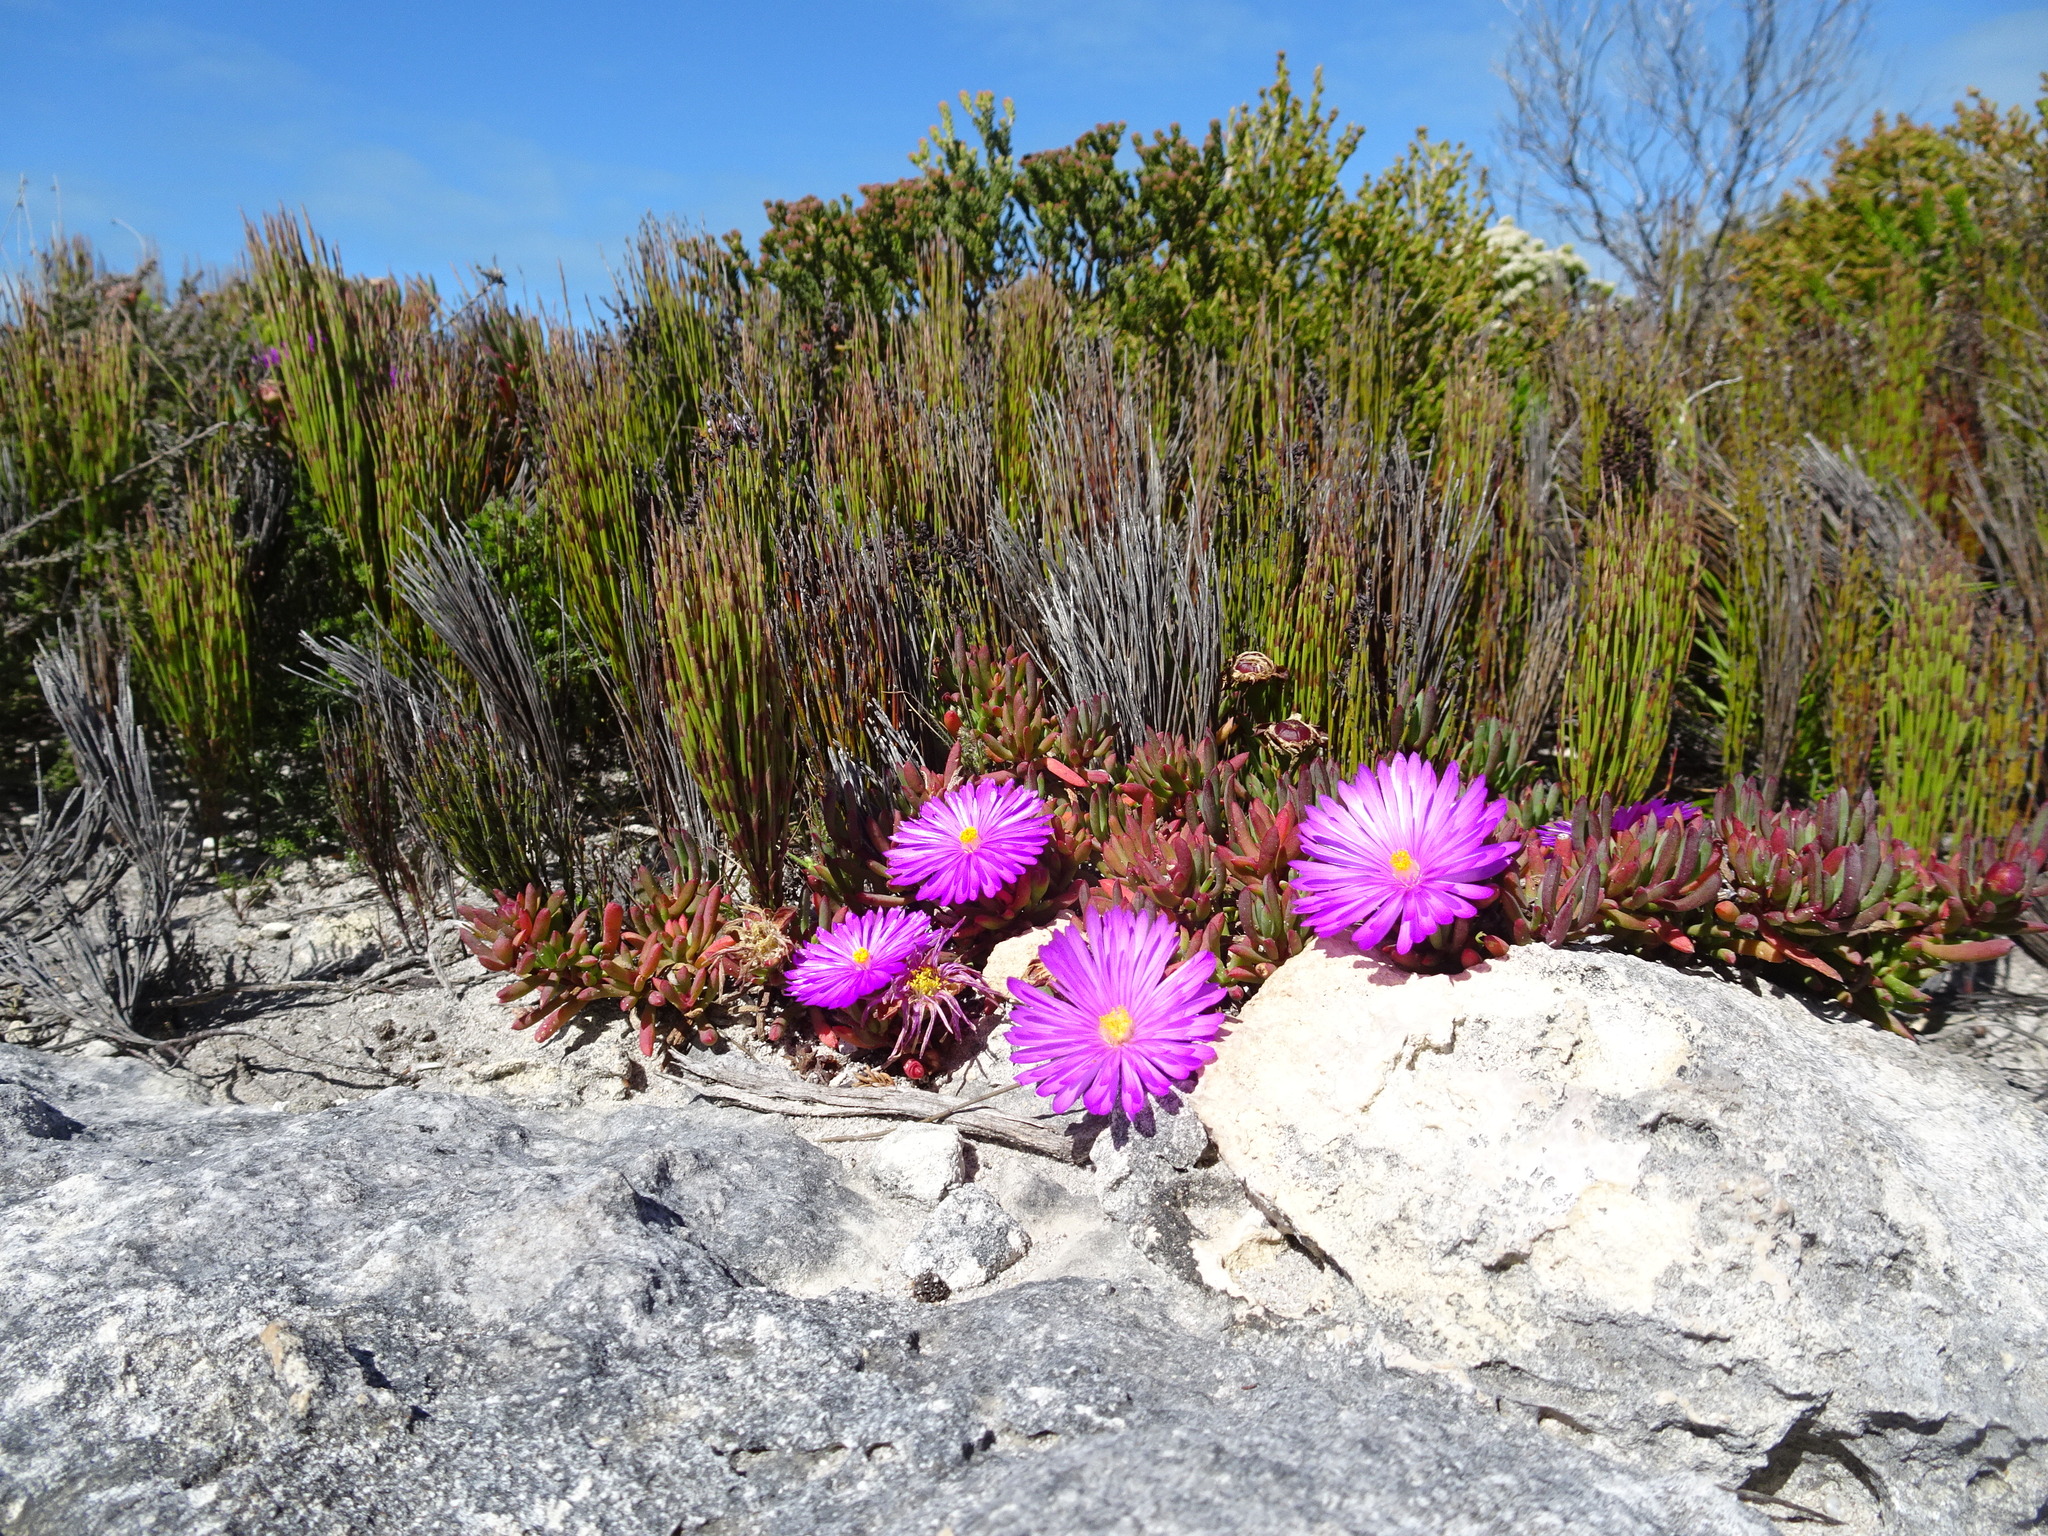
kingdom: Plantae
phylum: Tracheophyta
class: Magnoliopsida
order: Caryophyllales
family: Aizoaceae
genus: Lampranthus
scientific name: Lampranthus ceriseus
